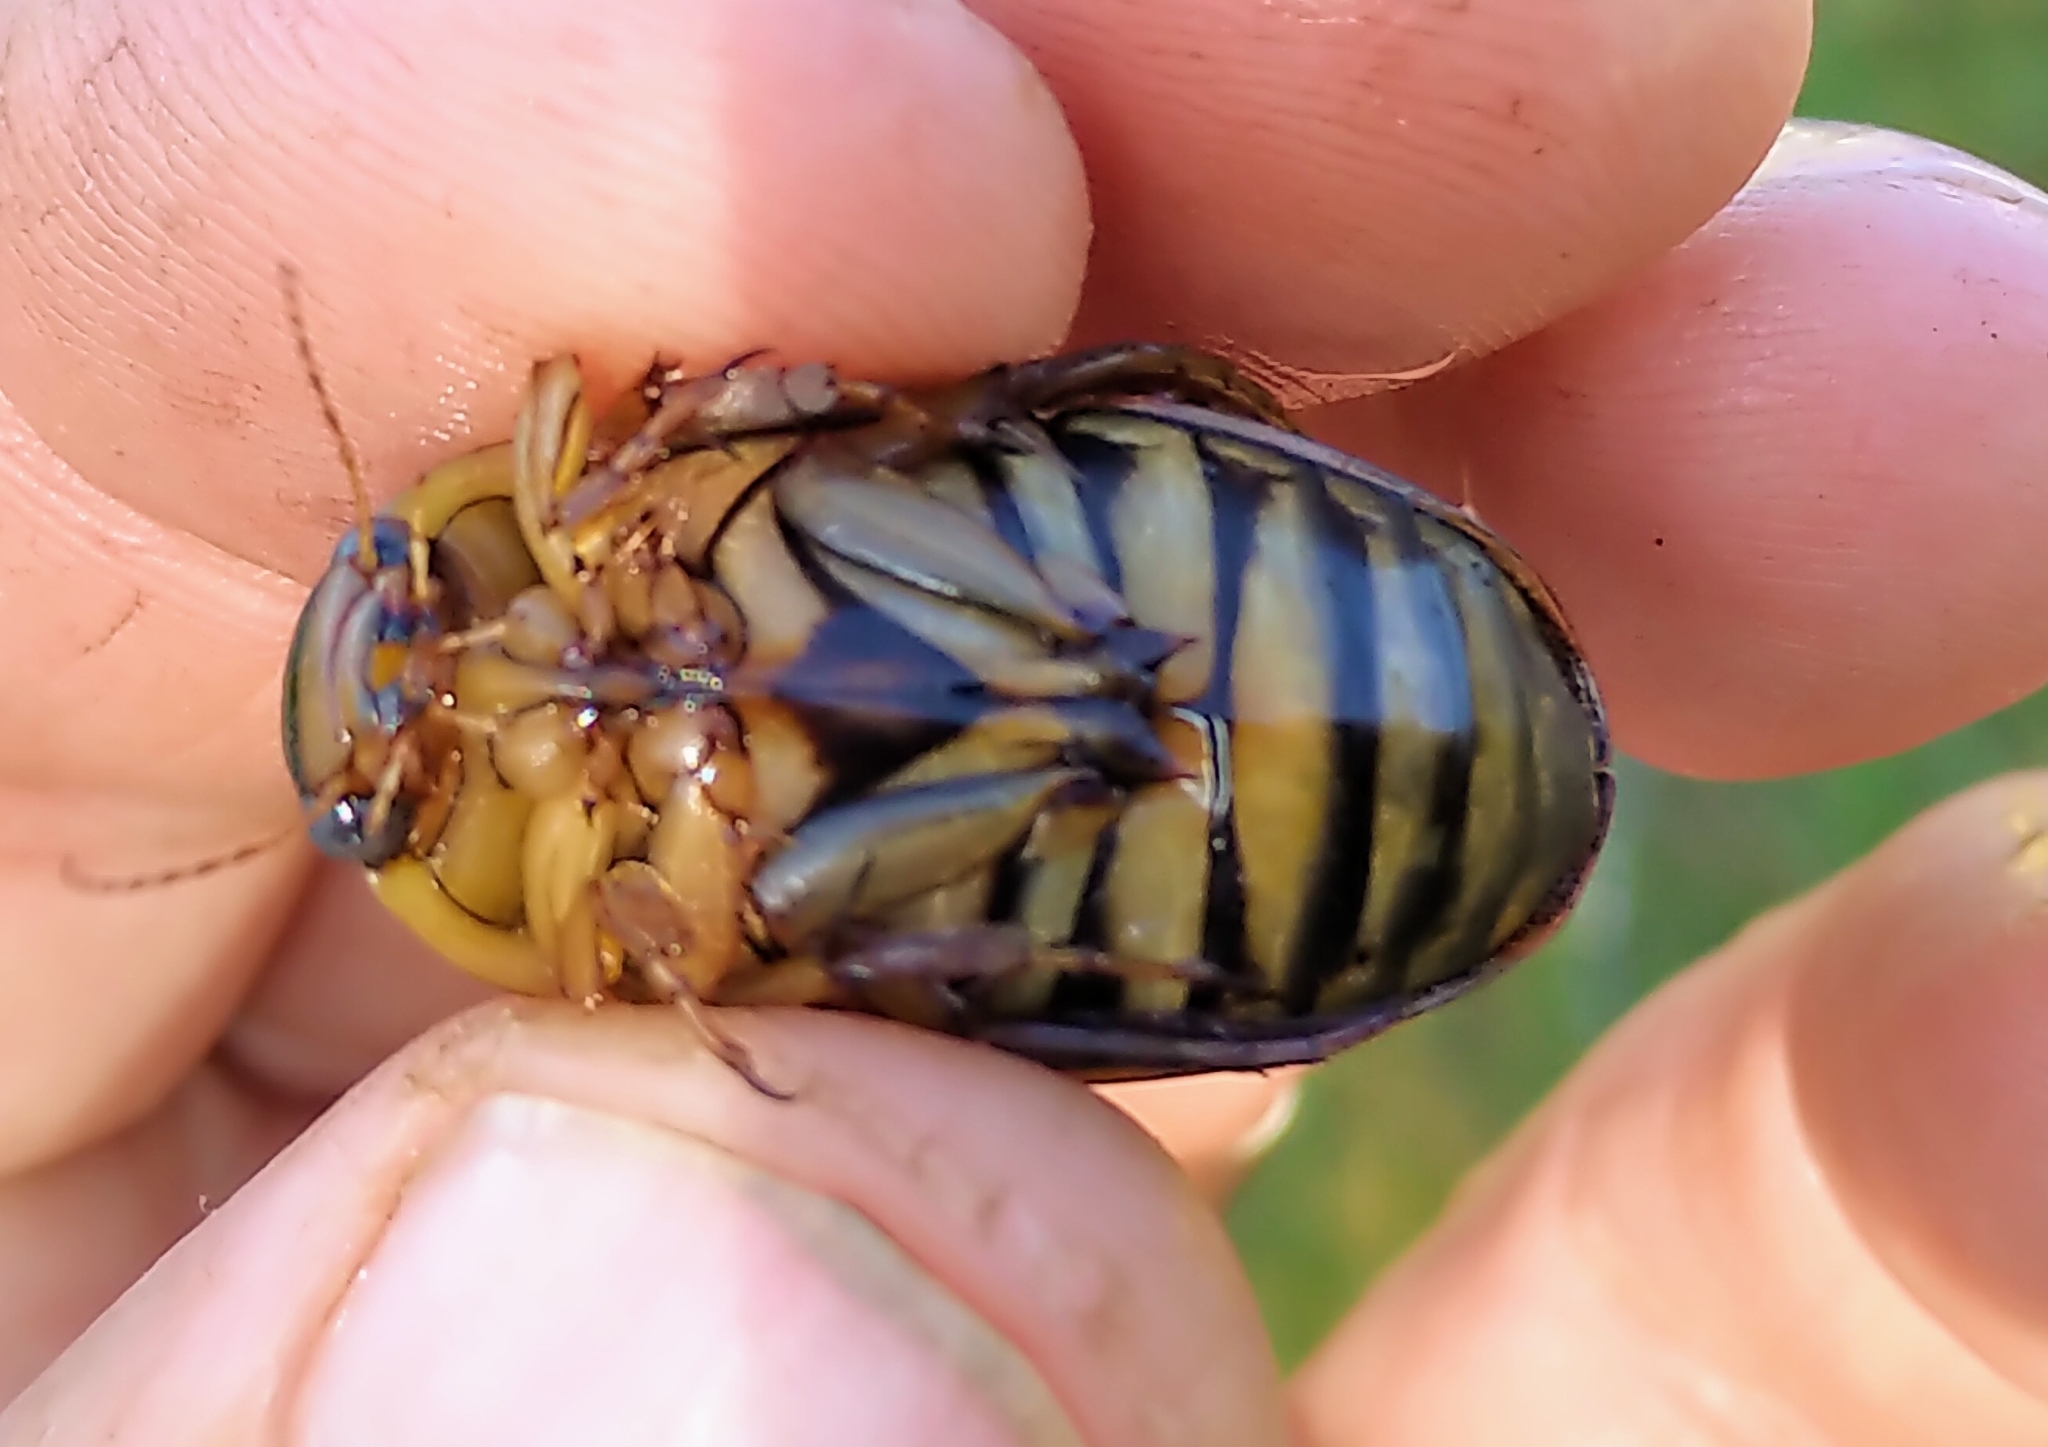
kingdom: Animalia
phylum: Arthropoda
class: Insecta
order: Coleoptera
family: Dytiscidae
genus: Dytiscus
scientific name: Dytiscus
